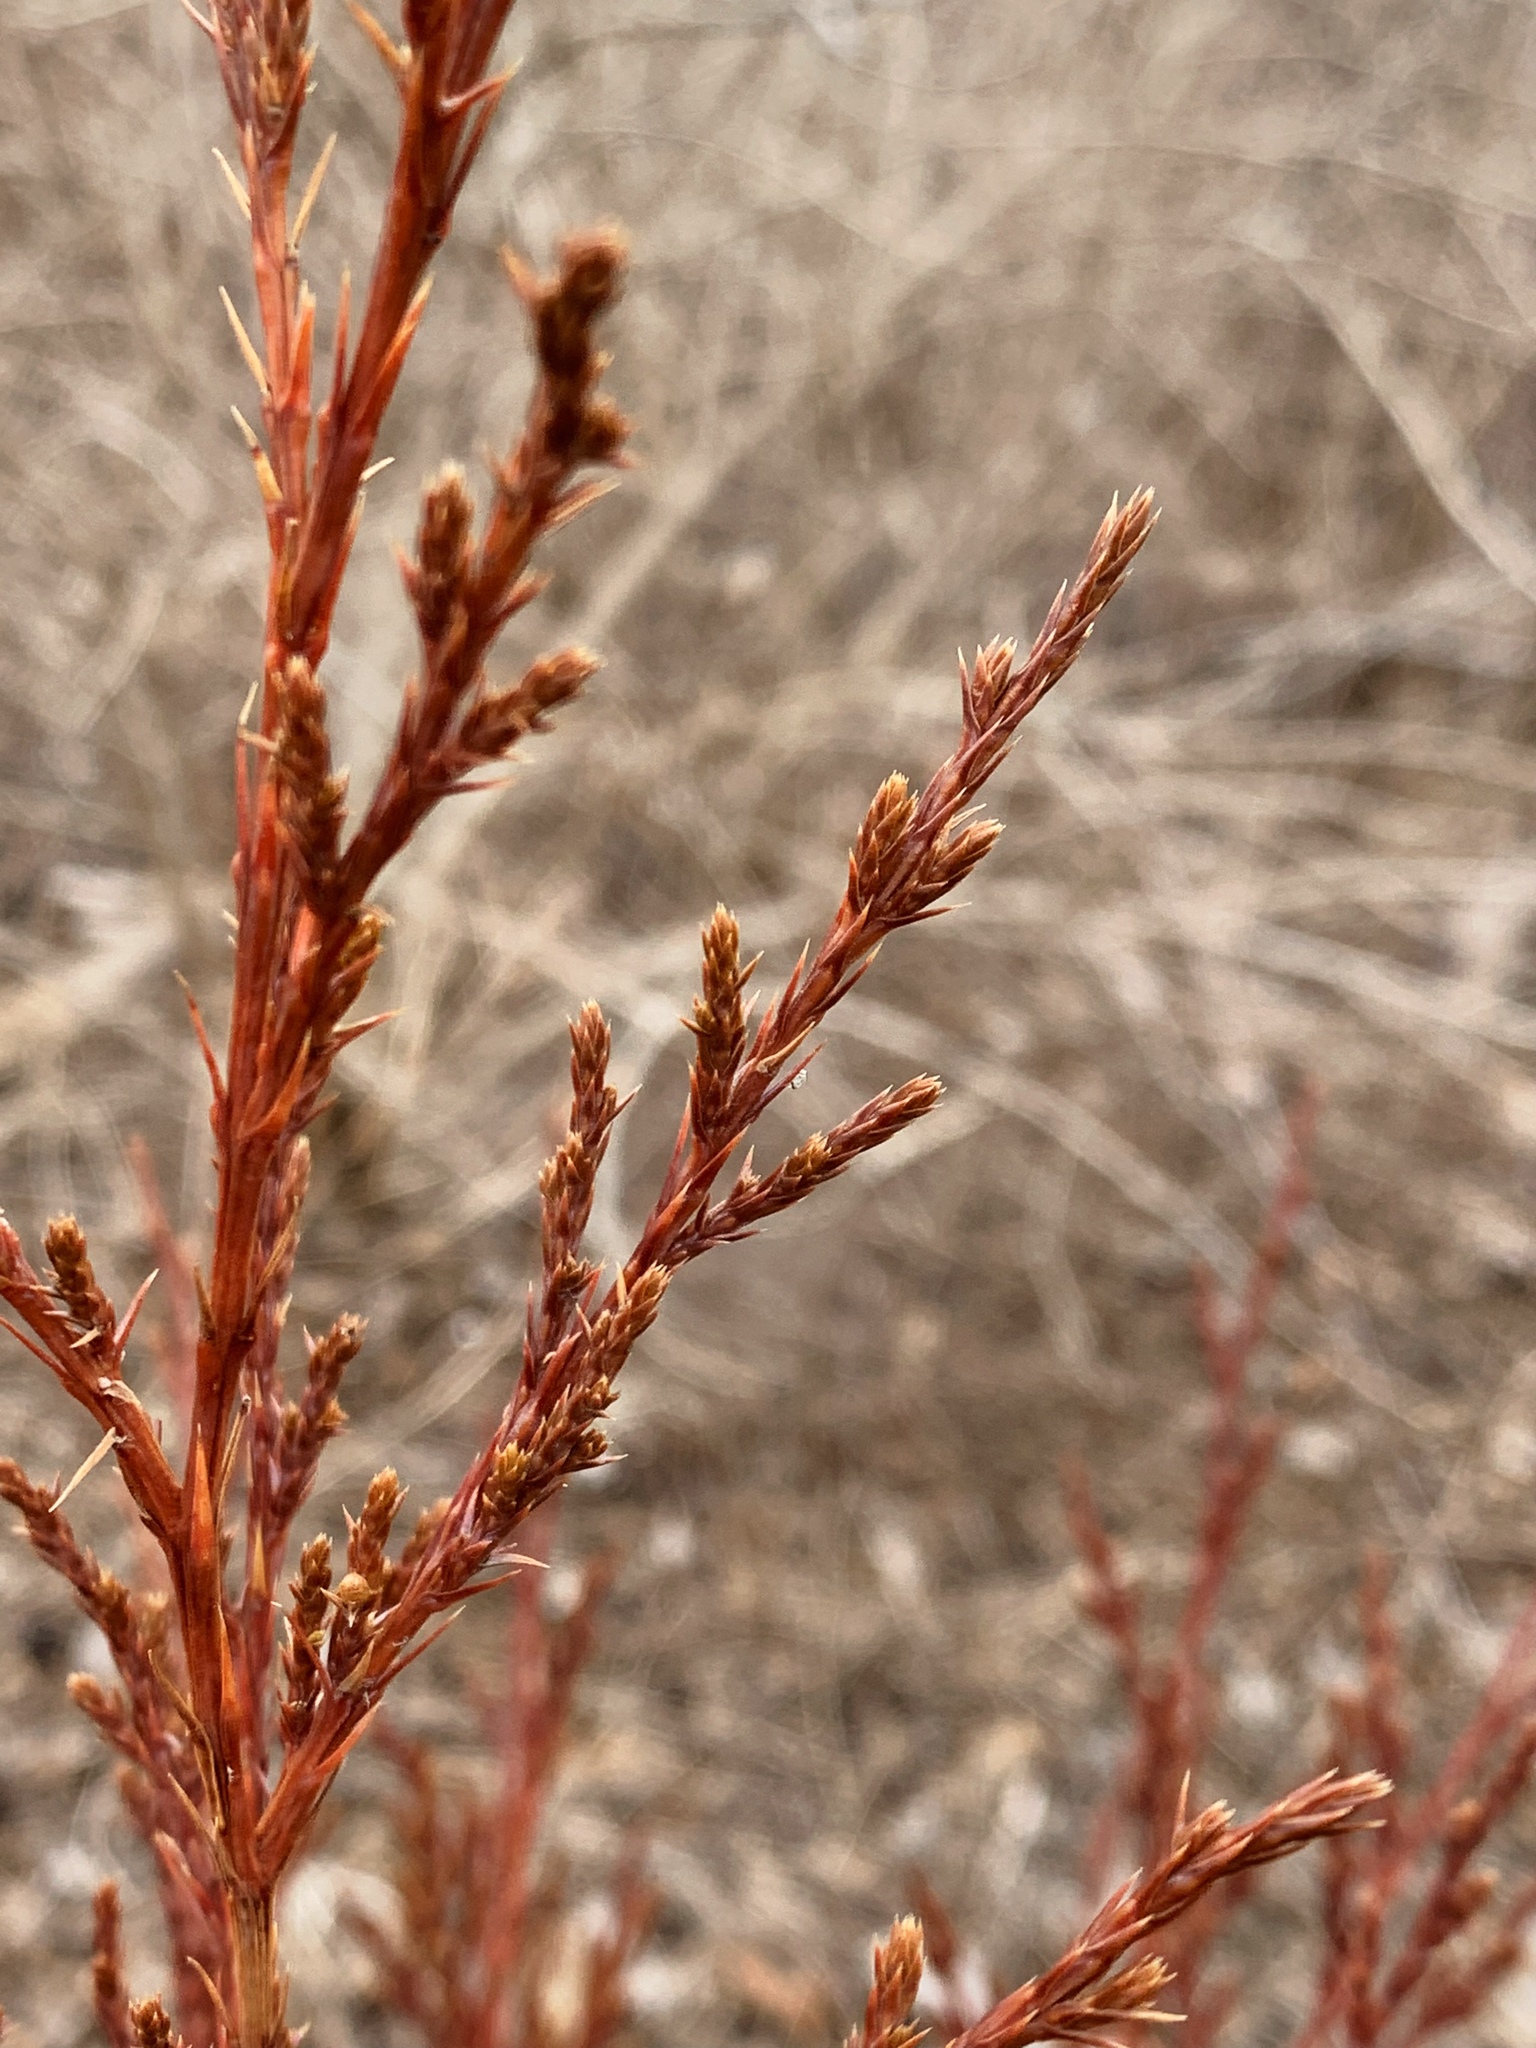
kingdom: Plantae
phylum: Tracheophyta
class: Pinopsida
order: Pinales
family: Cupressaceae
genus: Juniperus
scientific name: Juniperus virginiana
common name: Red juniper
